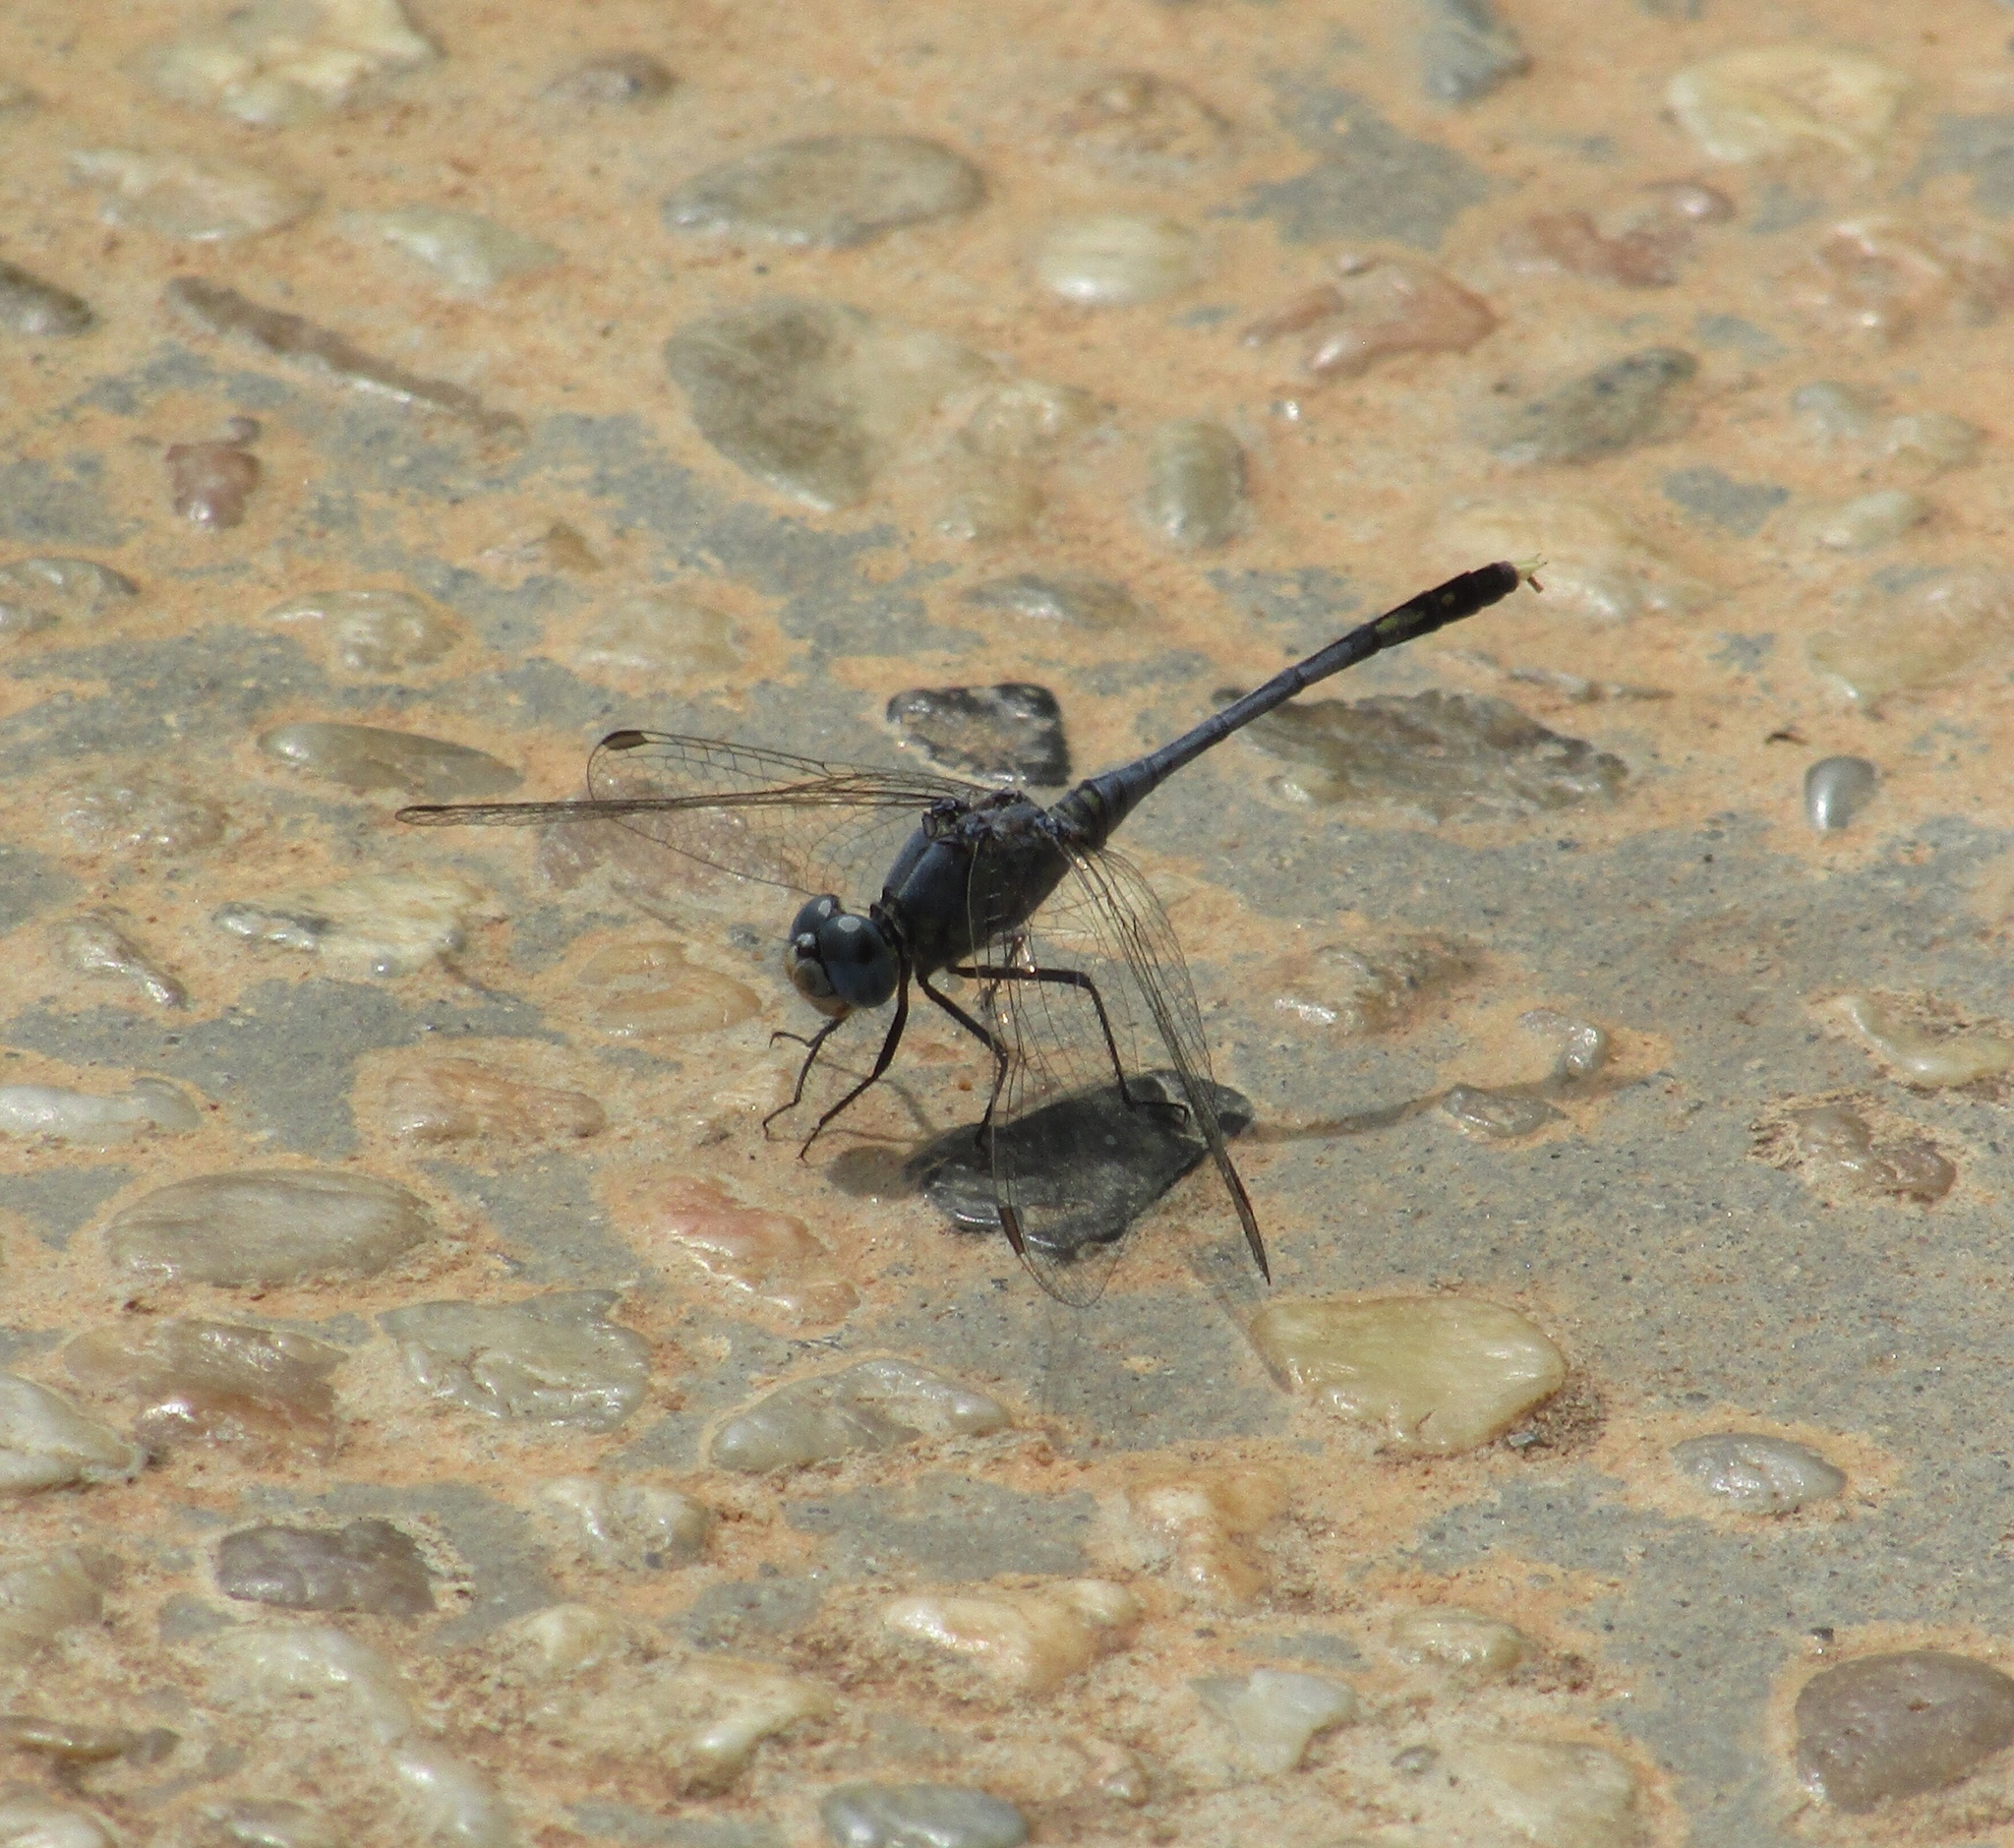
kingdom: Animalia
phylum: Arthropoda
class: Insecta
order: Odonata
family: Libellulidae
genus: Diplacodes
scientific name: Diplacodes trivialis
